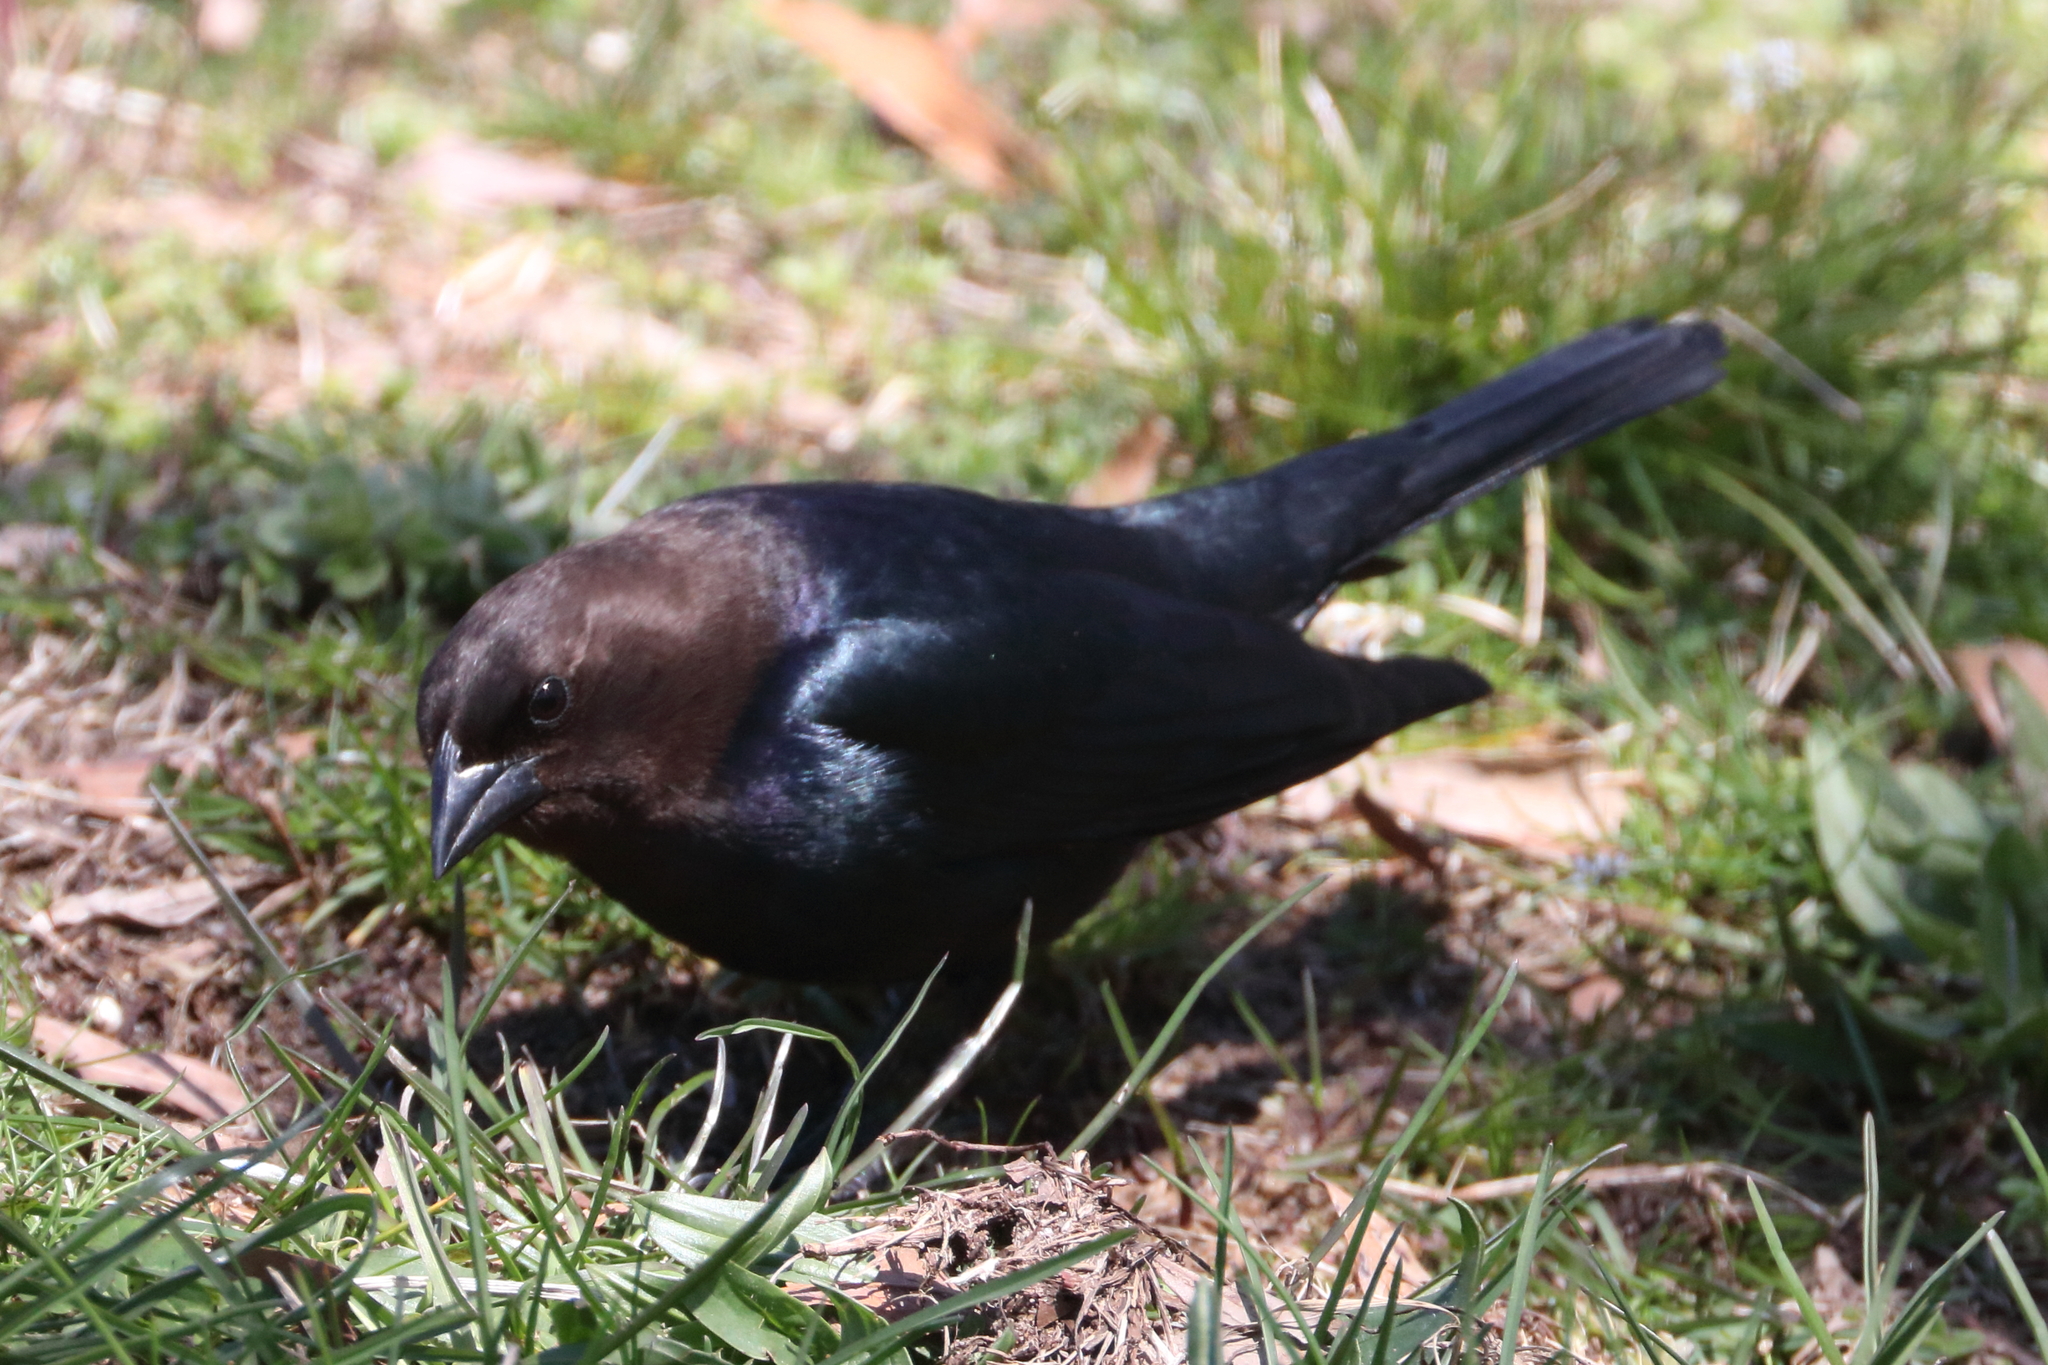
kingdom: Animalia
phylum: Chordata
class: Aves
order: Passeriformes
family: Icteridae
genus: Molothrus
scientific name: Molothrus ater
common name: Brown-headed cowbird
